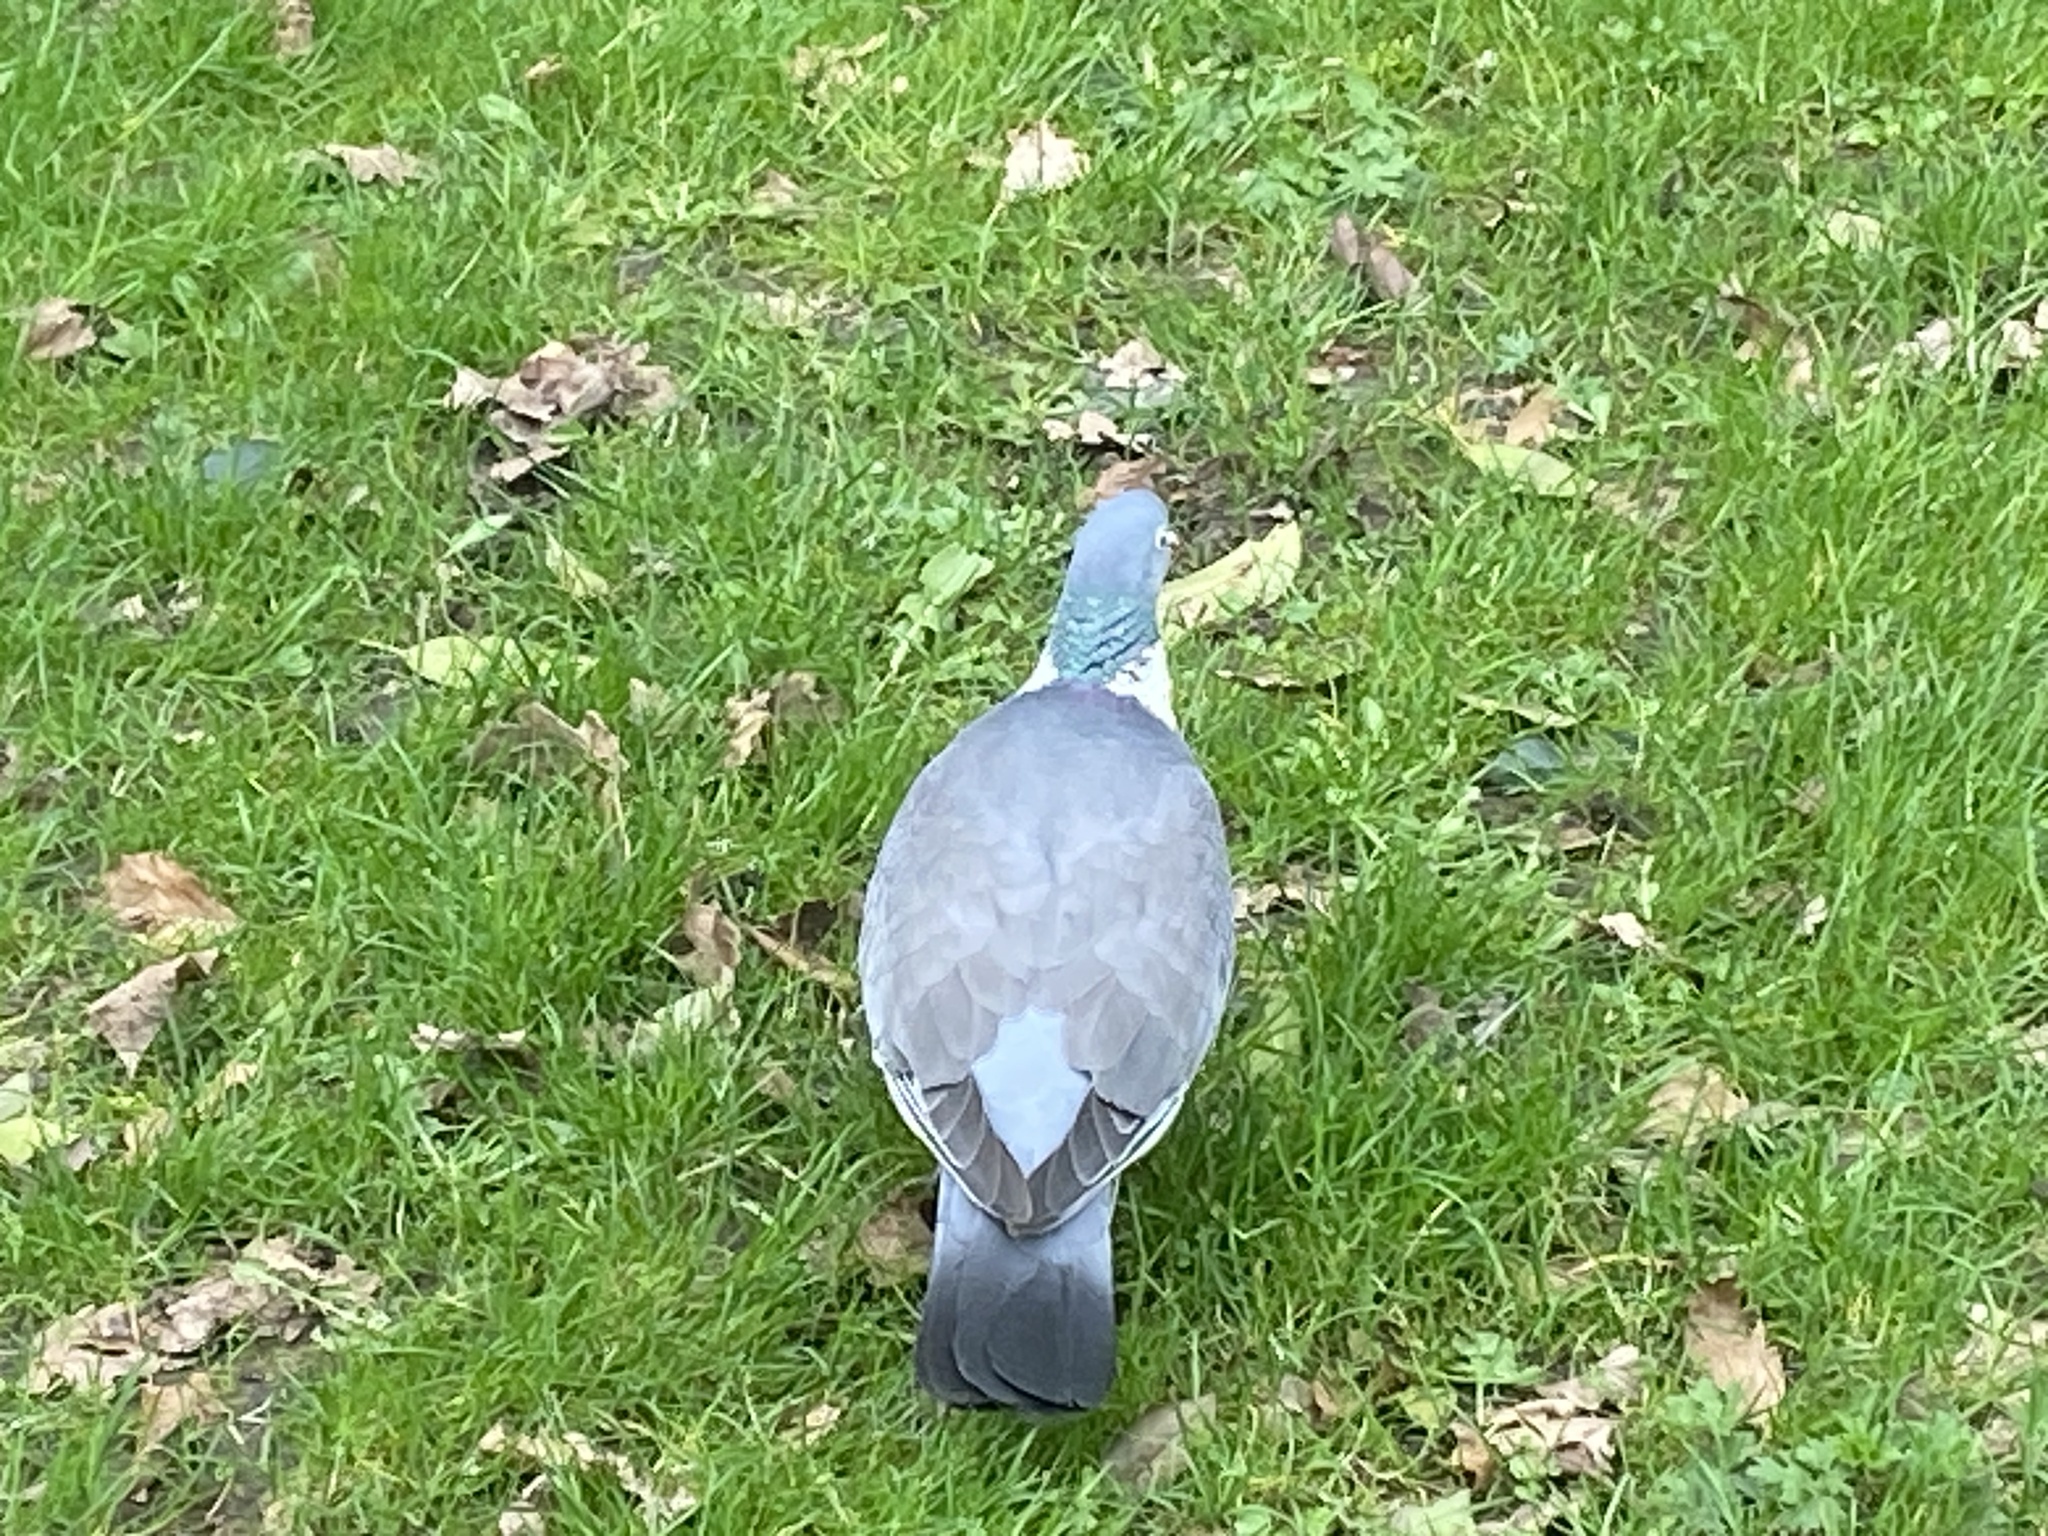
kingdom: Animalia
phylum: Chordata
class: Aves
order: Columbiformes
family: Columbidae
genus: Columba
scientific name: Columba palumbus
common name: Common wood pigeon
